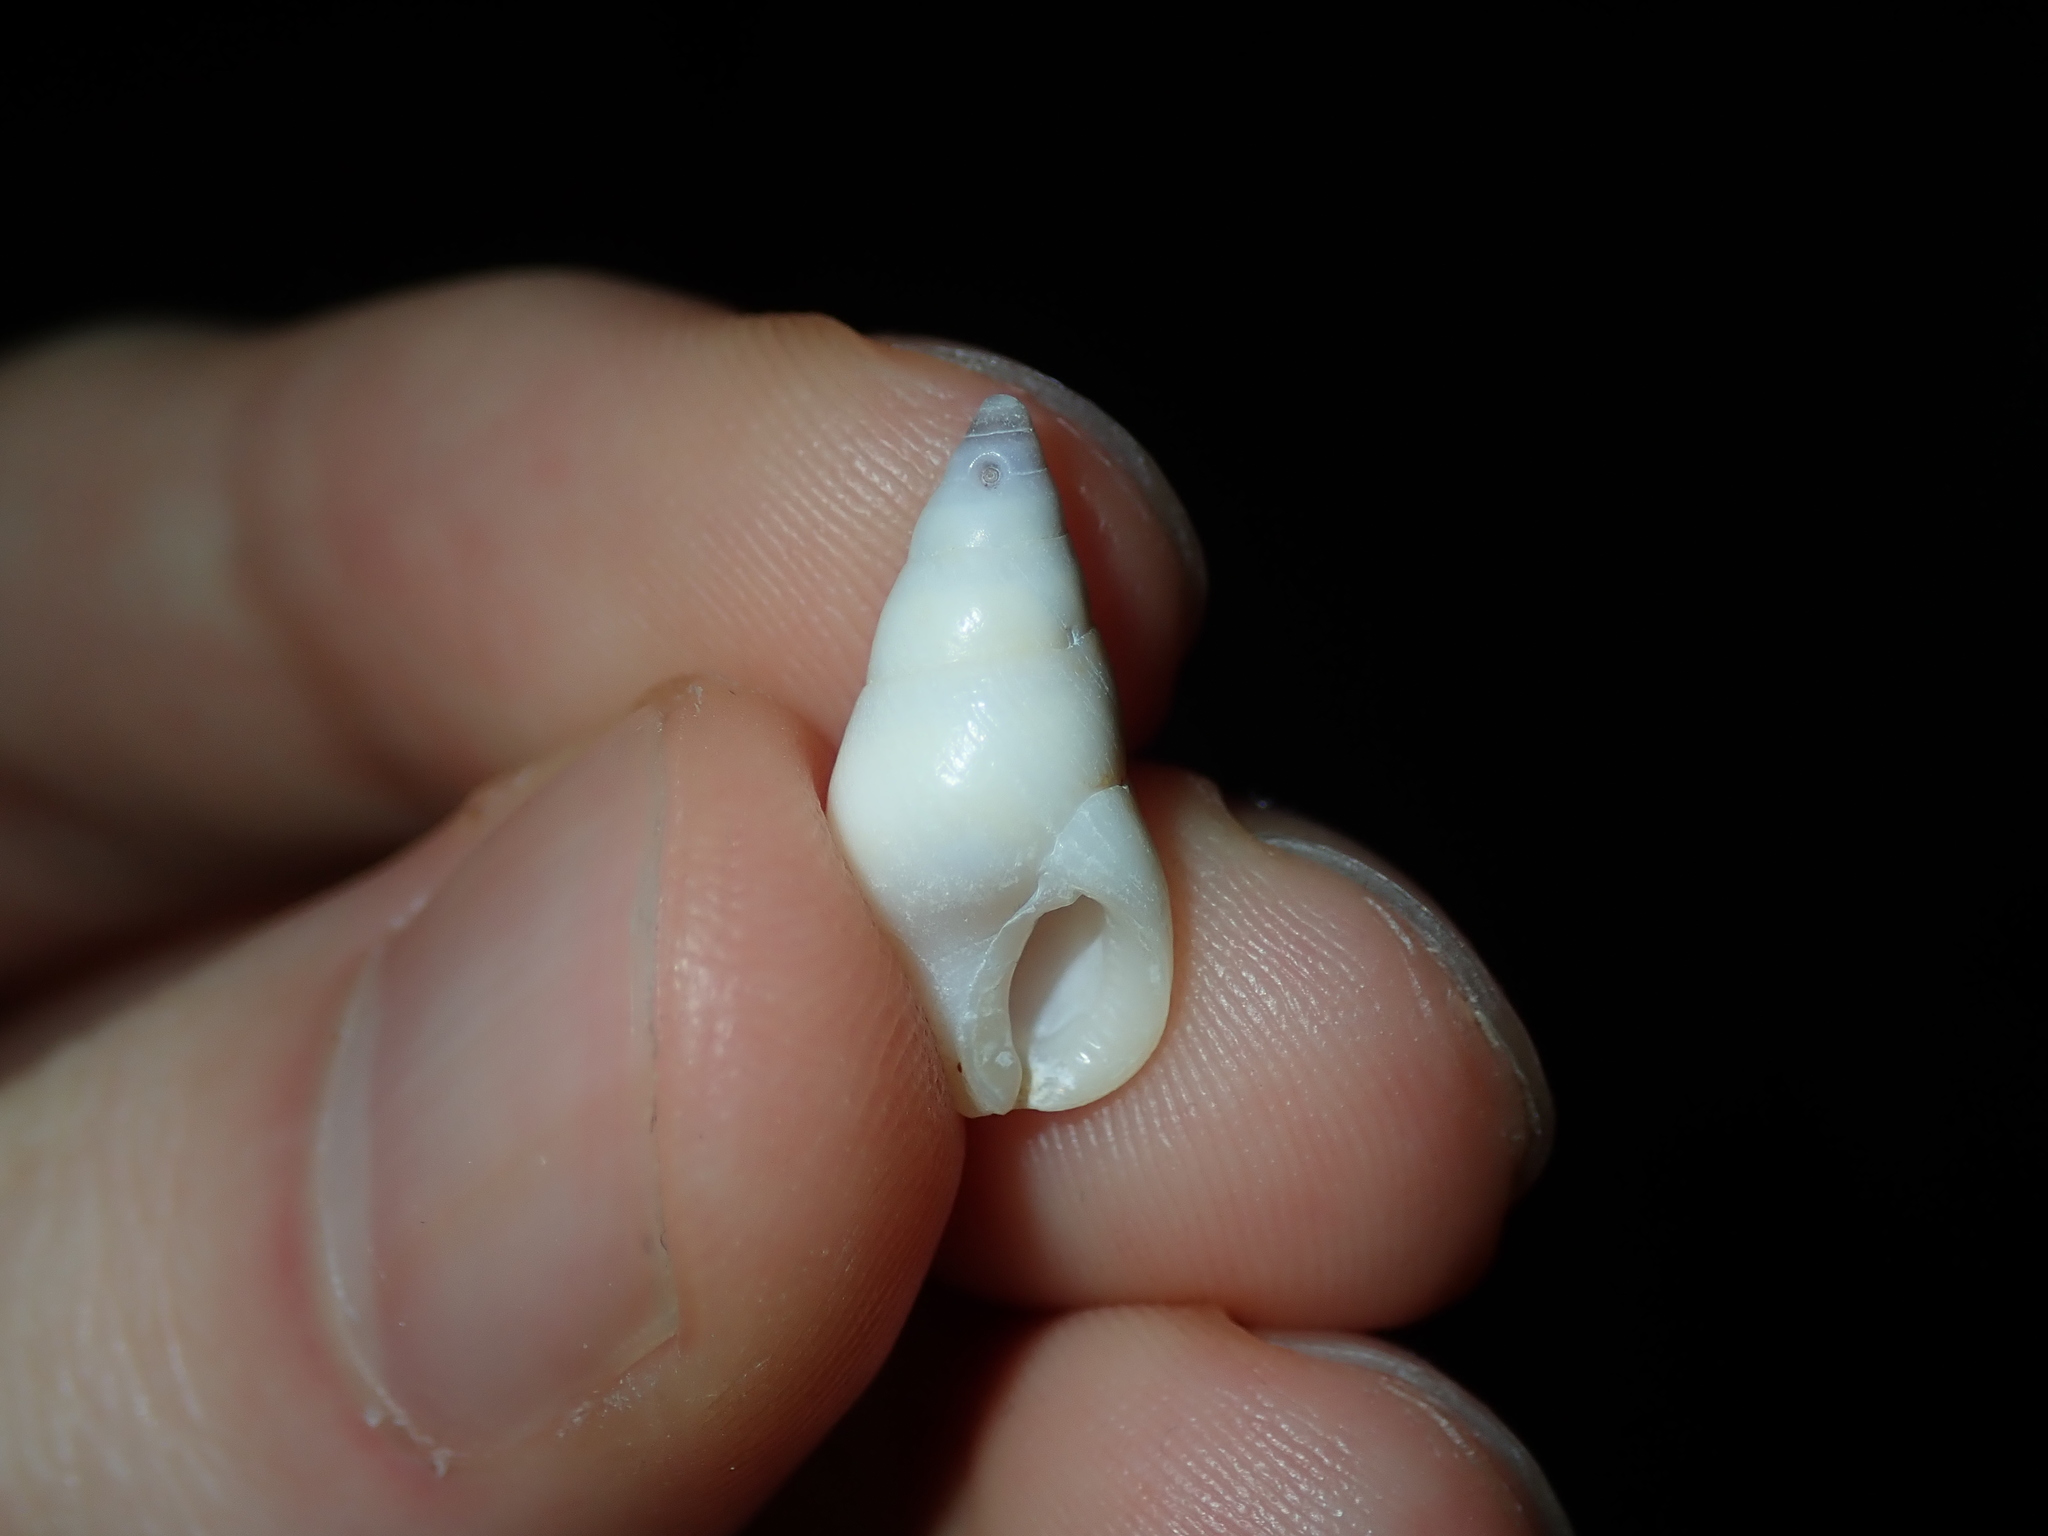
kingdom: Animalia
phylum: Mollusca
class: Gastropoda
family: Planaxidae
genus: Hinea
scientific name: Hinea brasiliana
